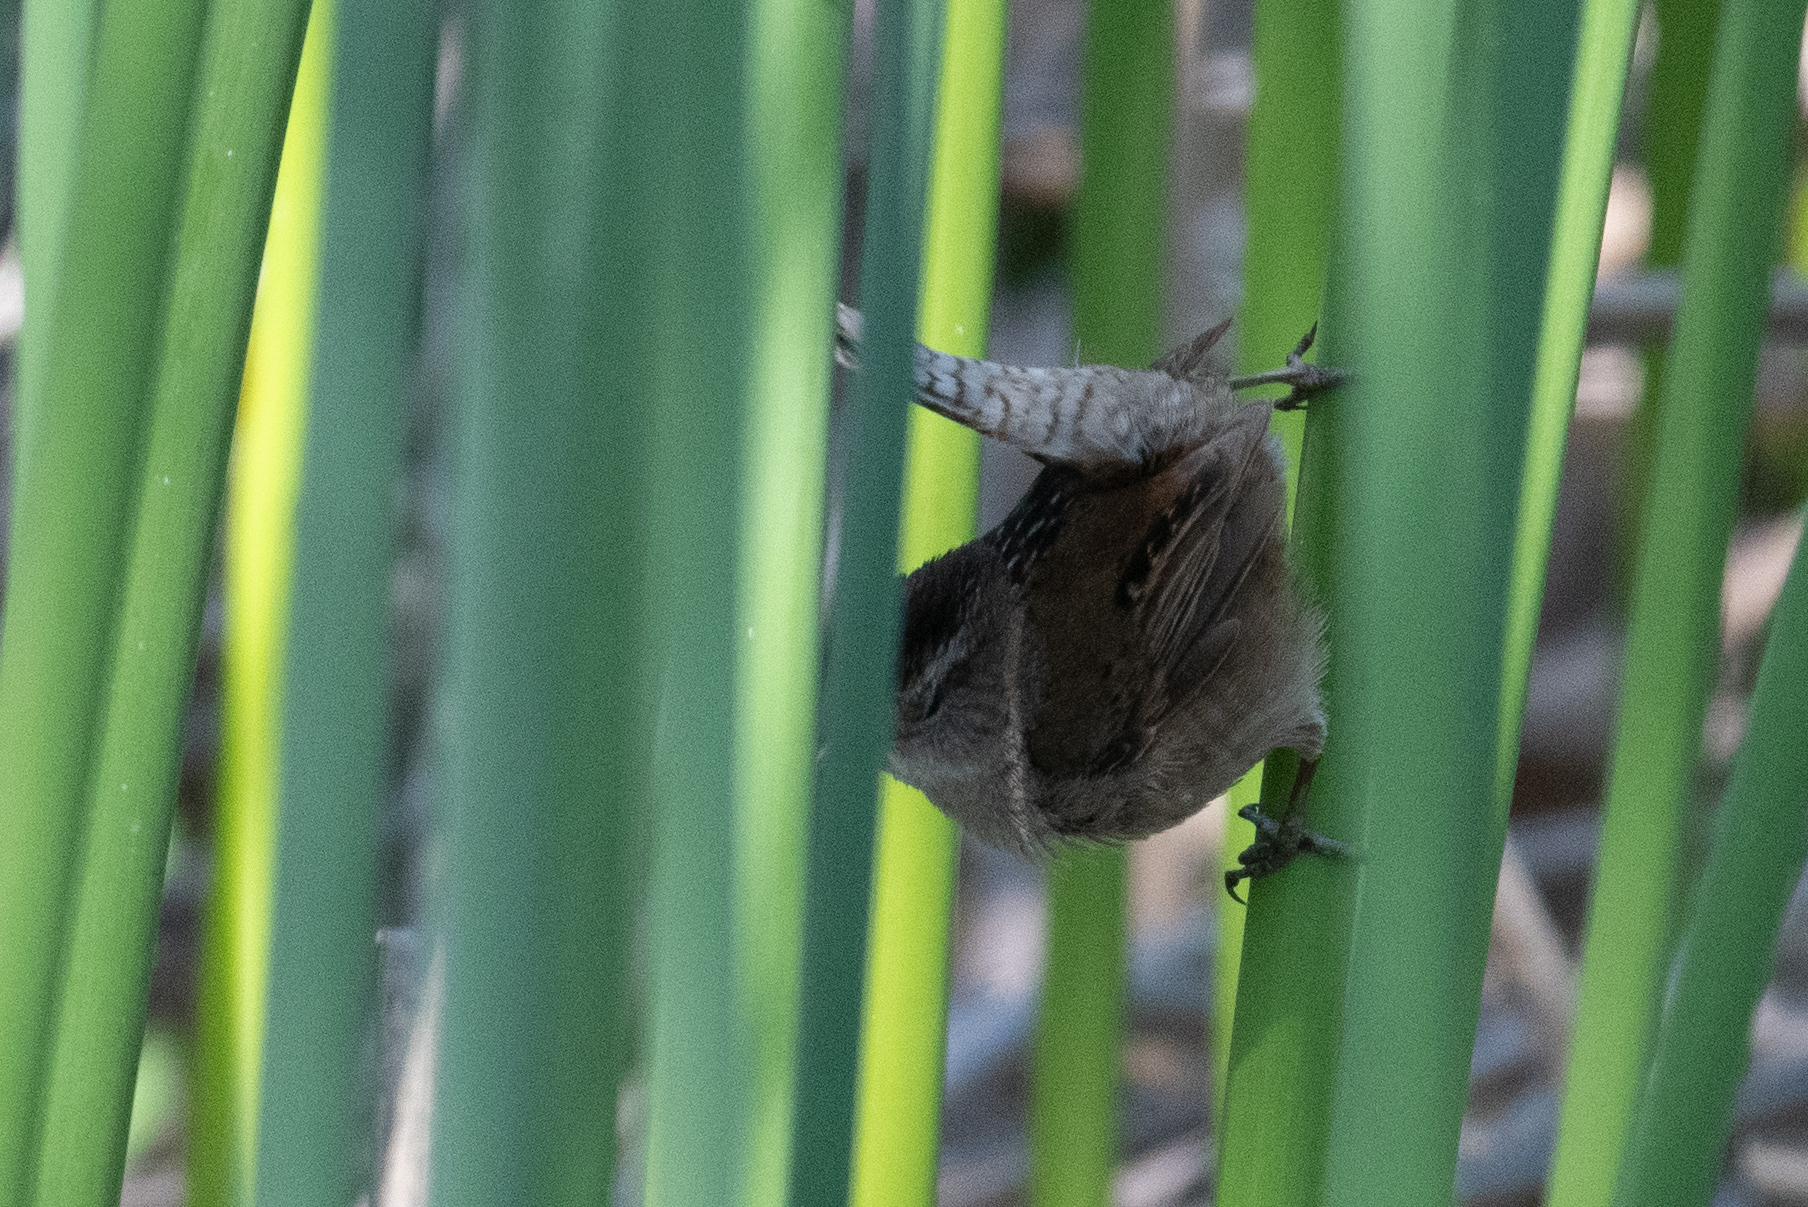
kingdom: Animalia
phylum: Chordata
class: Aves
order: Passeriformes
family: Troglodytidae
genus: Cistothorus
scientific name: Cistothorus palustris
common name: Marsh wren
